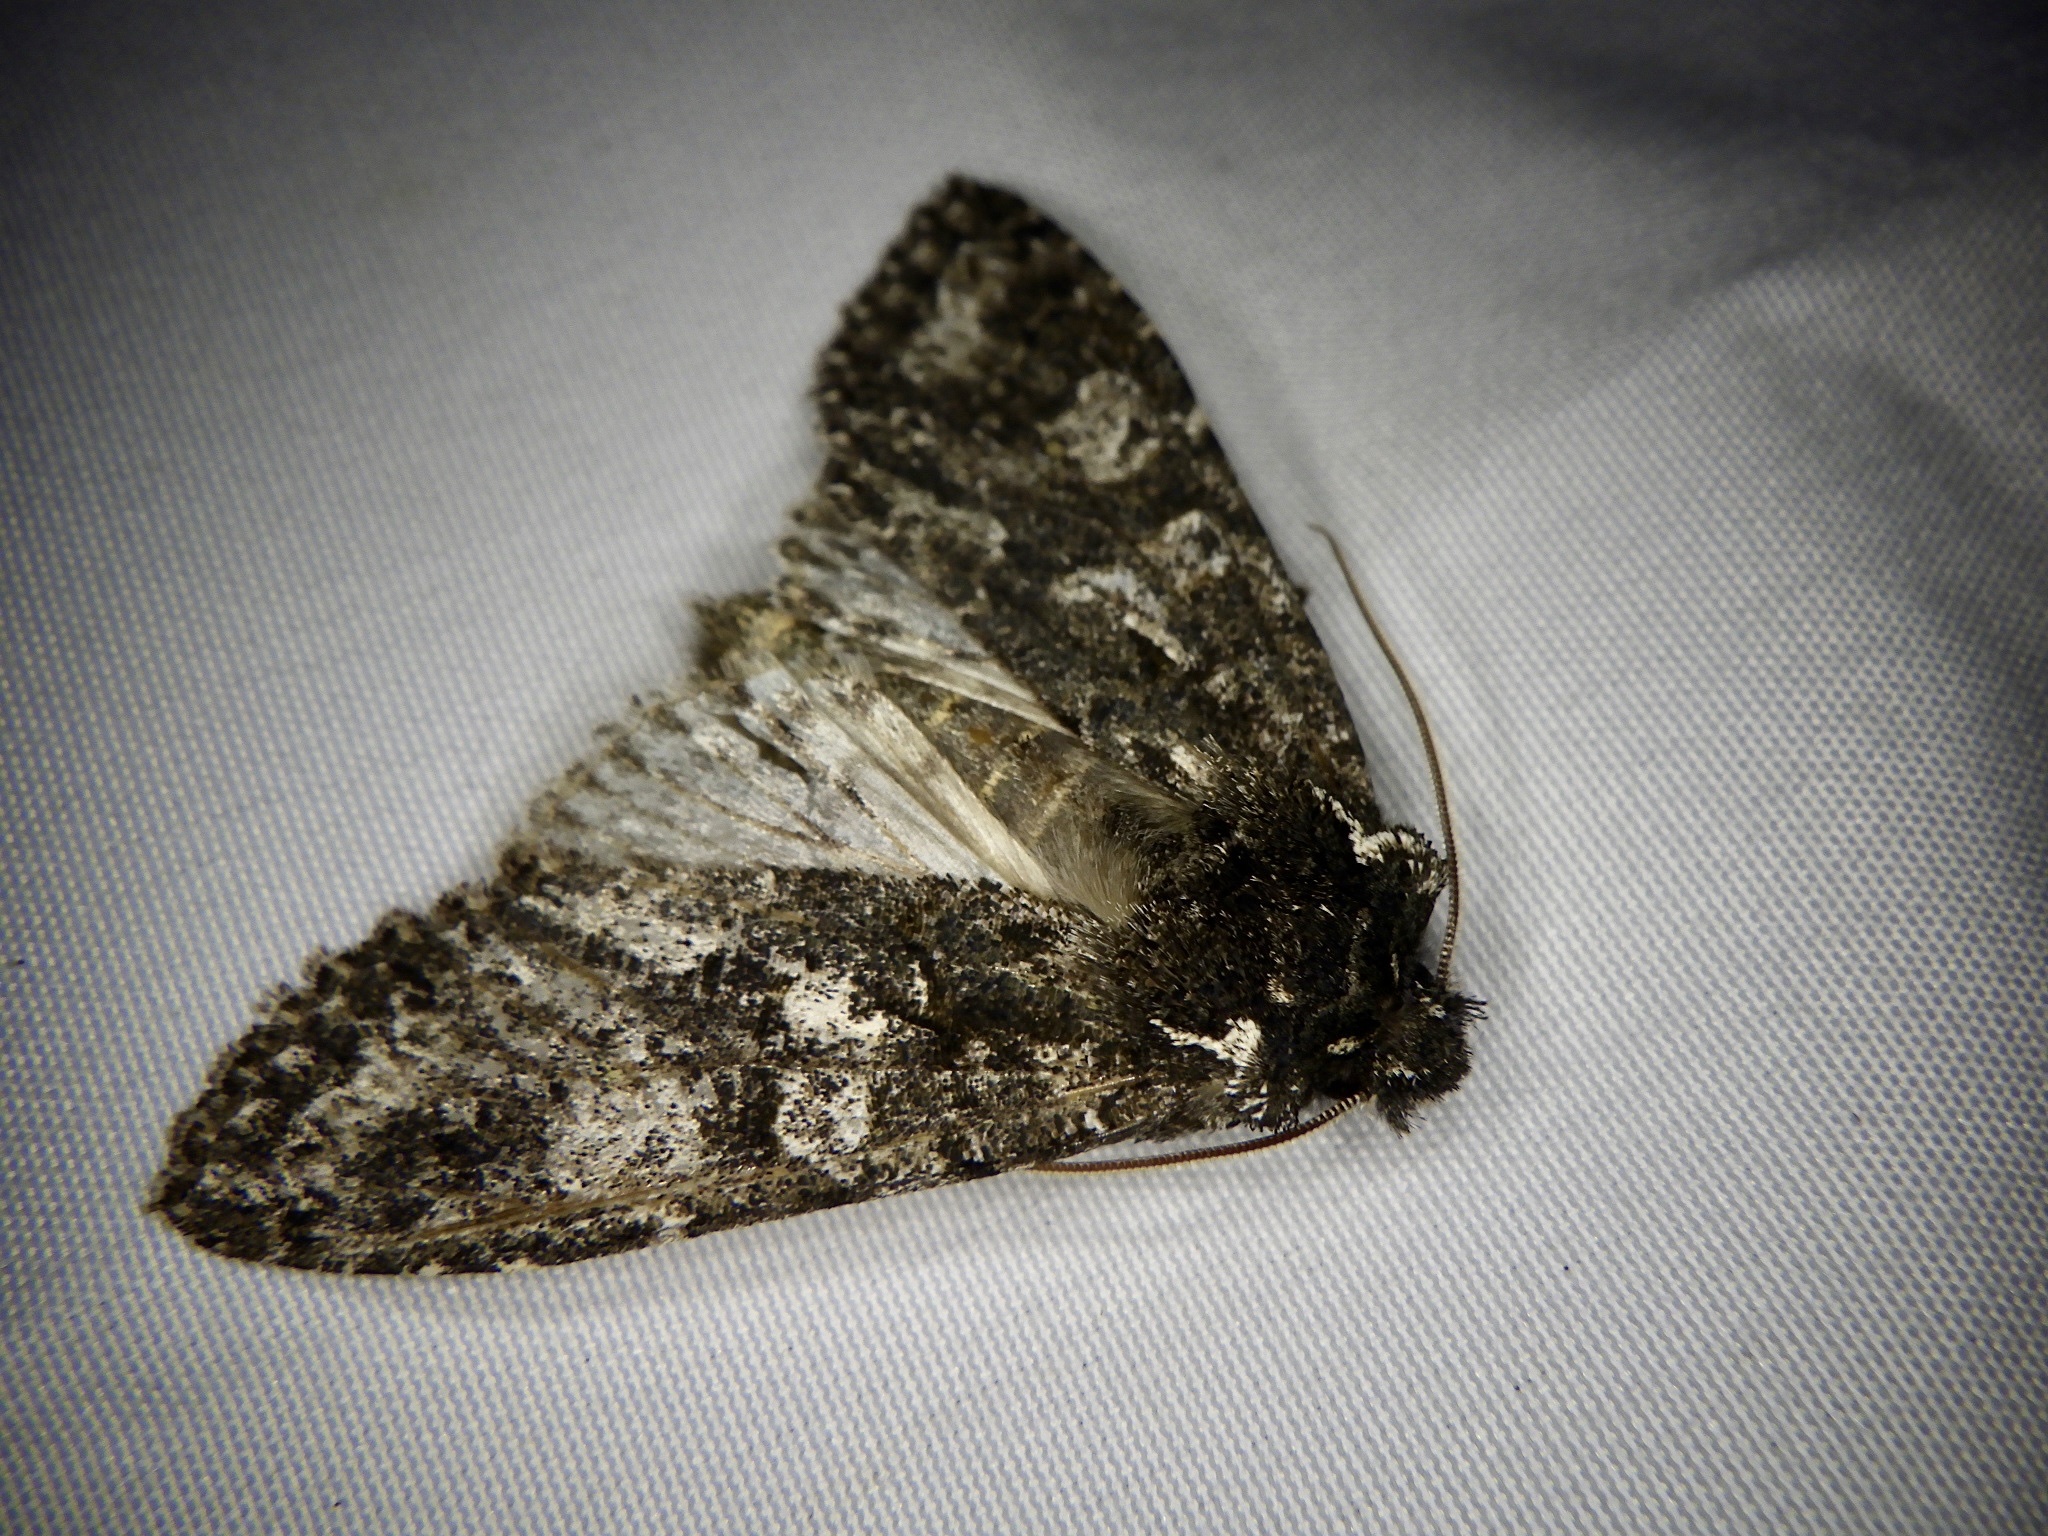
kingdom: Animalia
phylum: Arthropoda
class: Insecta
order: Lepidoptera
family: Noctuidae
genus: Belosticta
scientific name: Belosticta funesta
